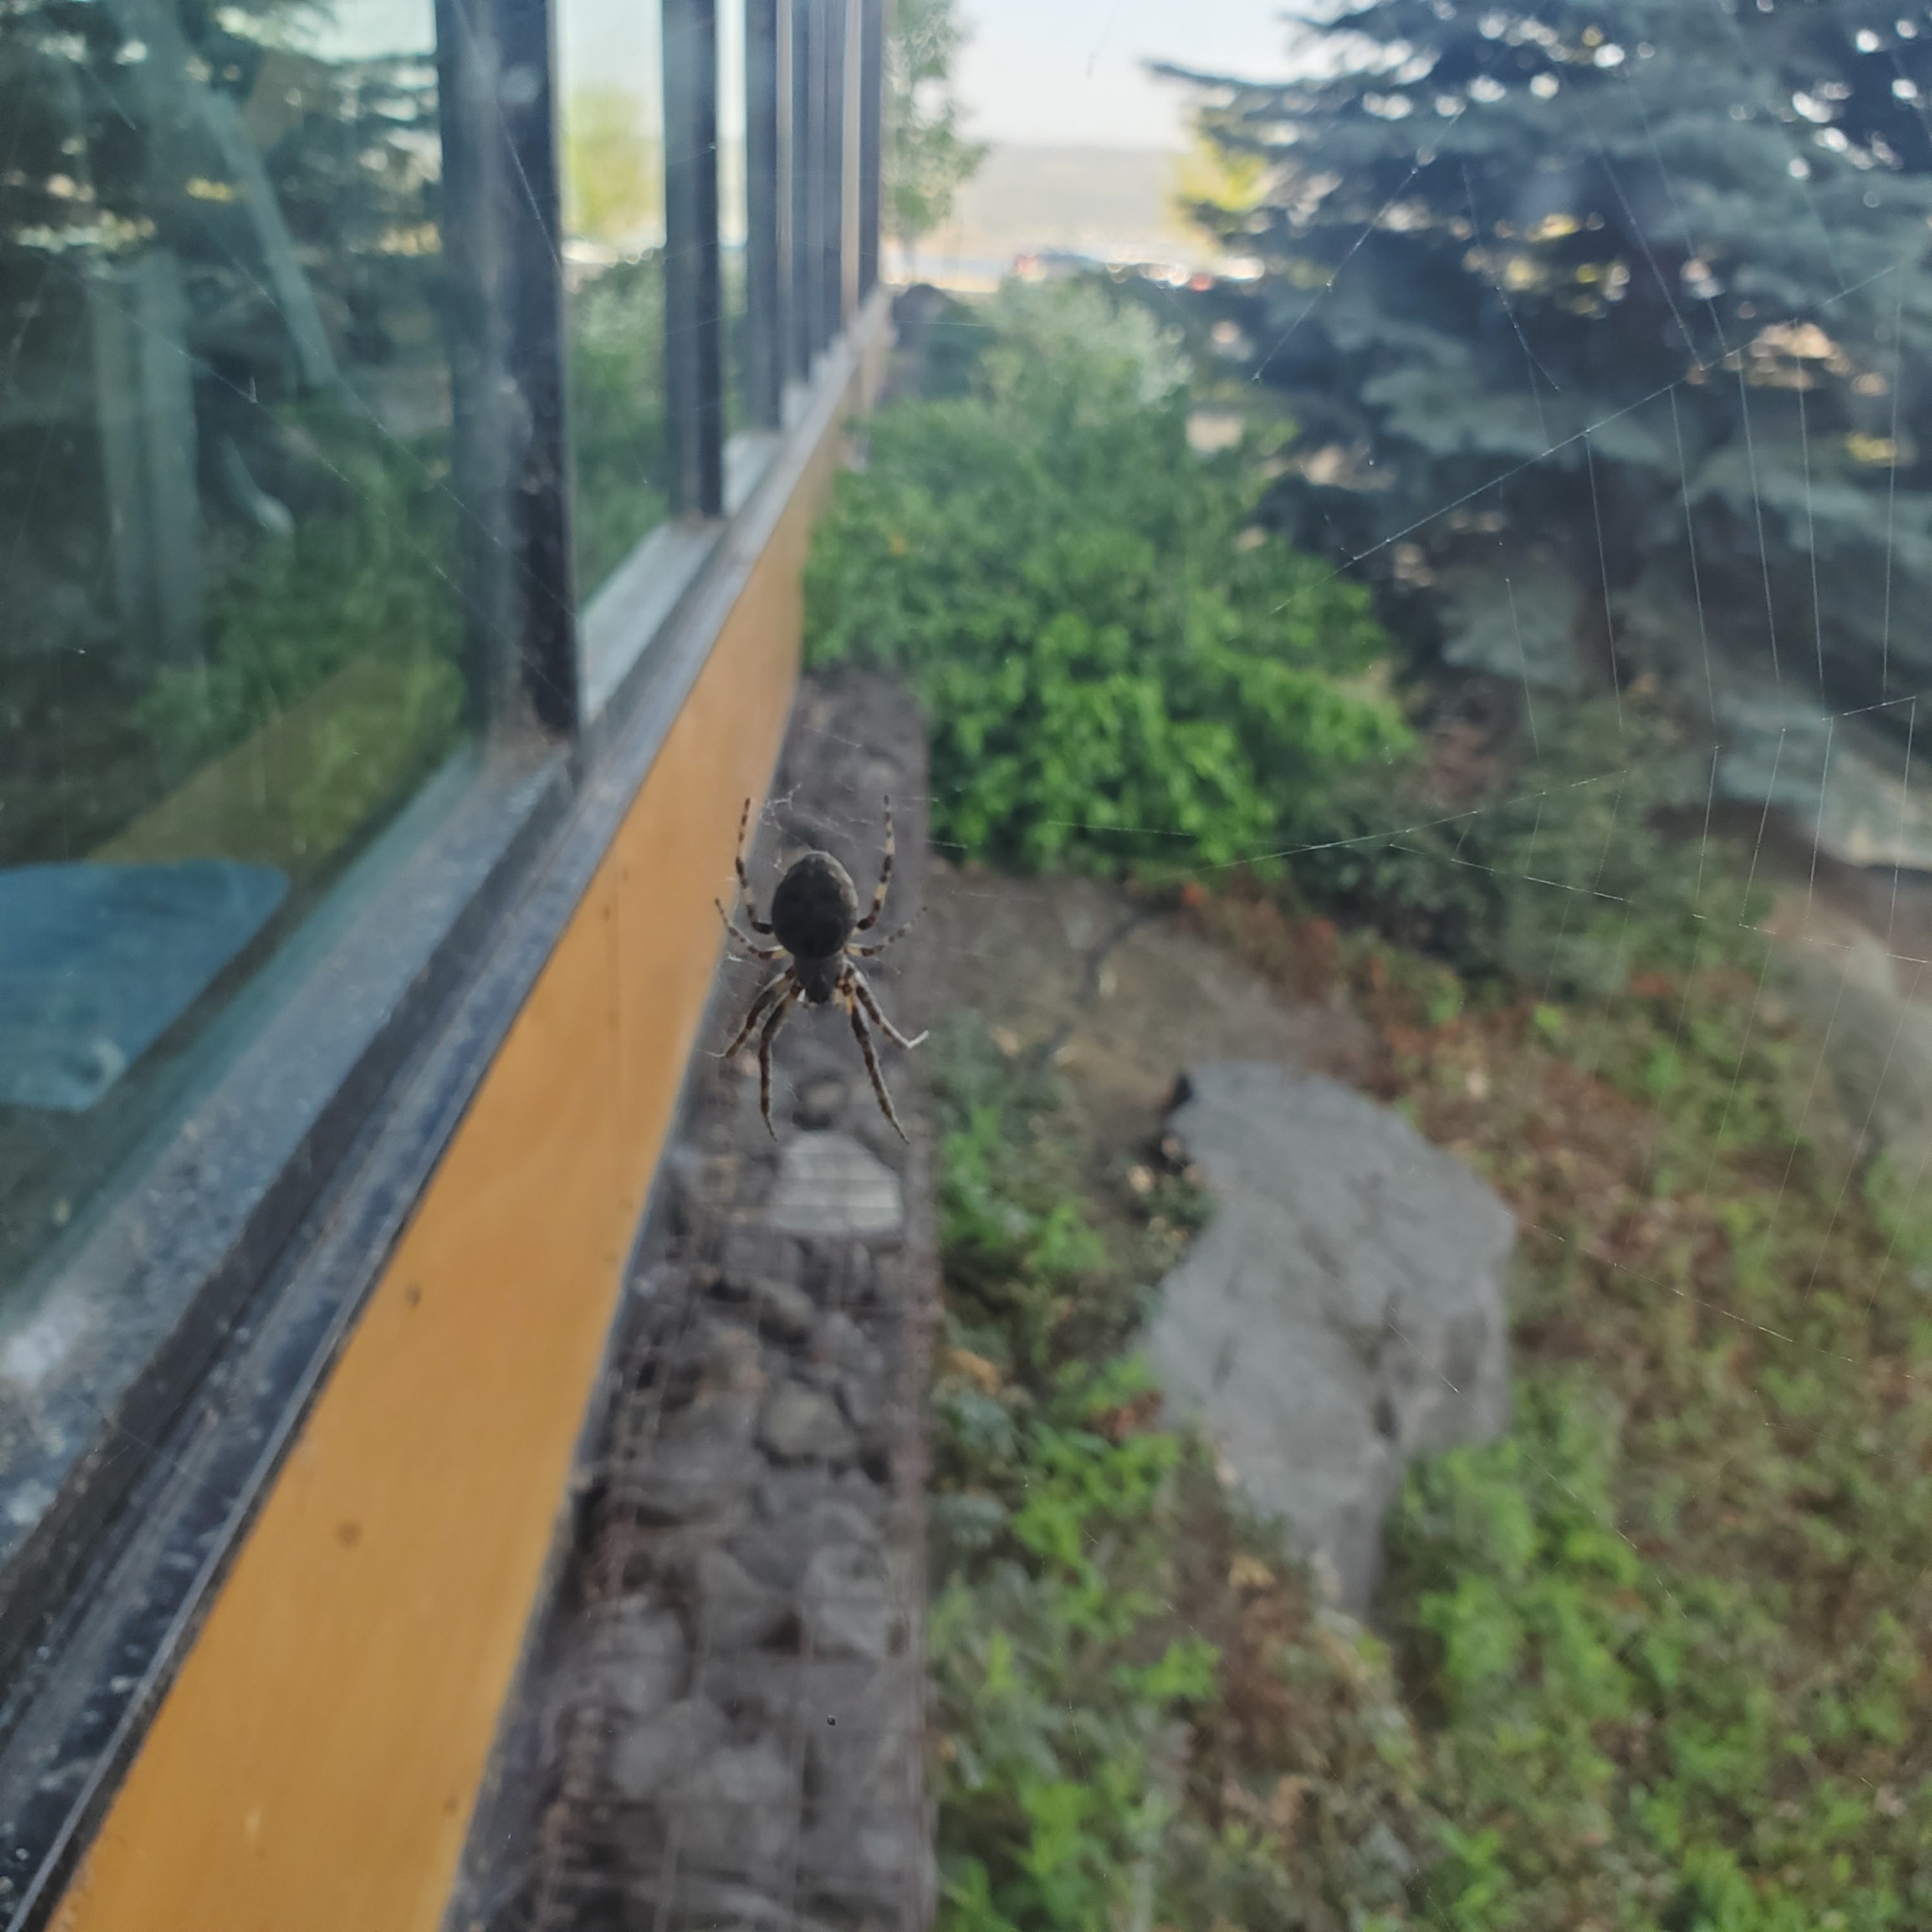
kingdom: Animalia
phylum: Arthropoda
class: Arachnida
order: Araneae
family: Araneidae
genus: Larinioides
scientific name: Larinioides sclopetarius
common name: Bridge orbweaver
